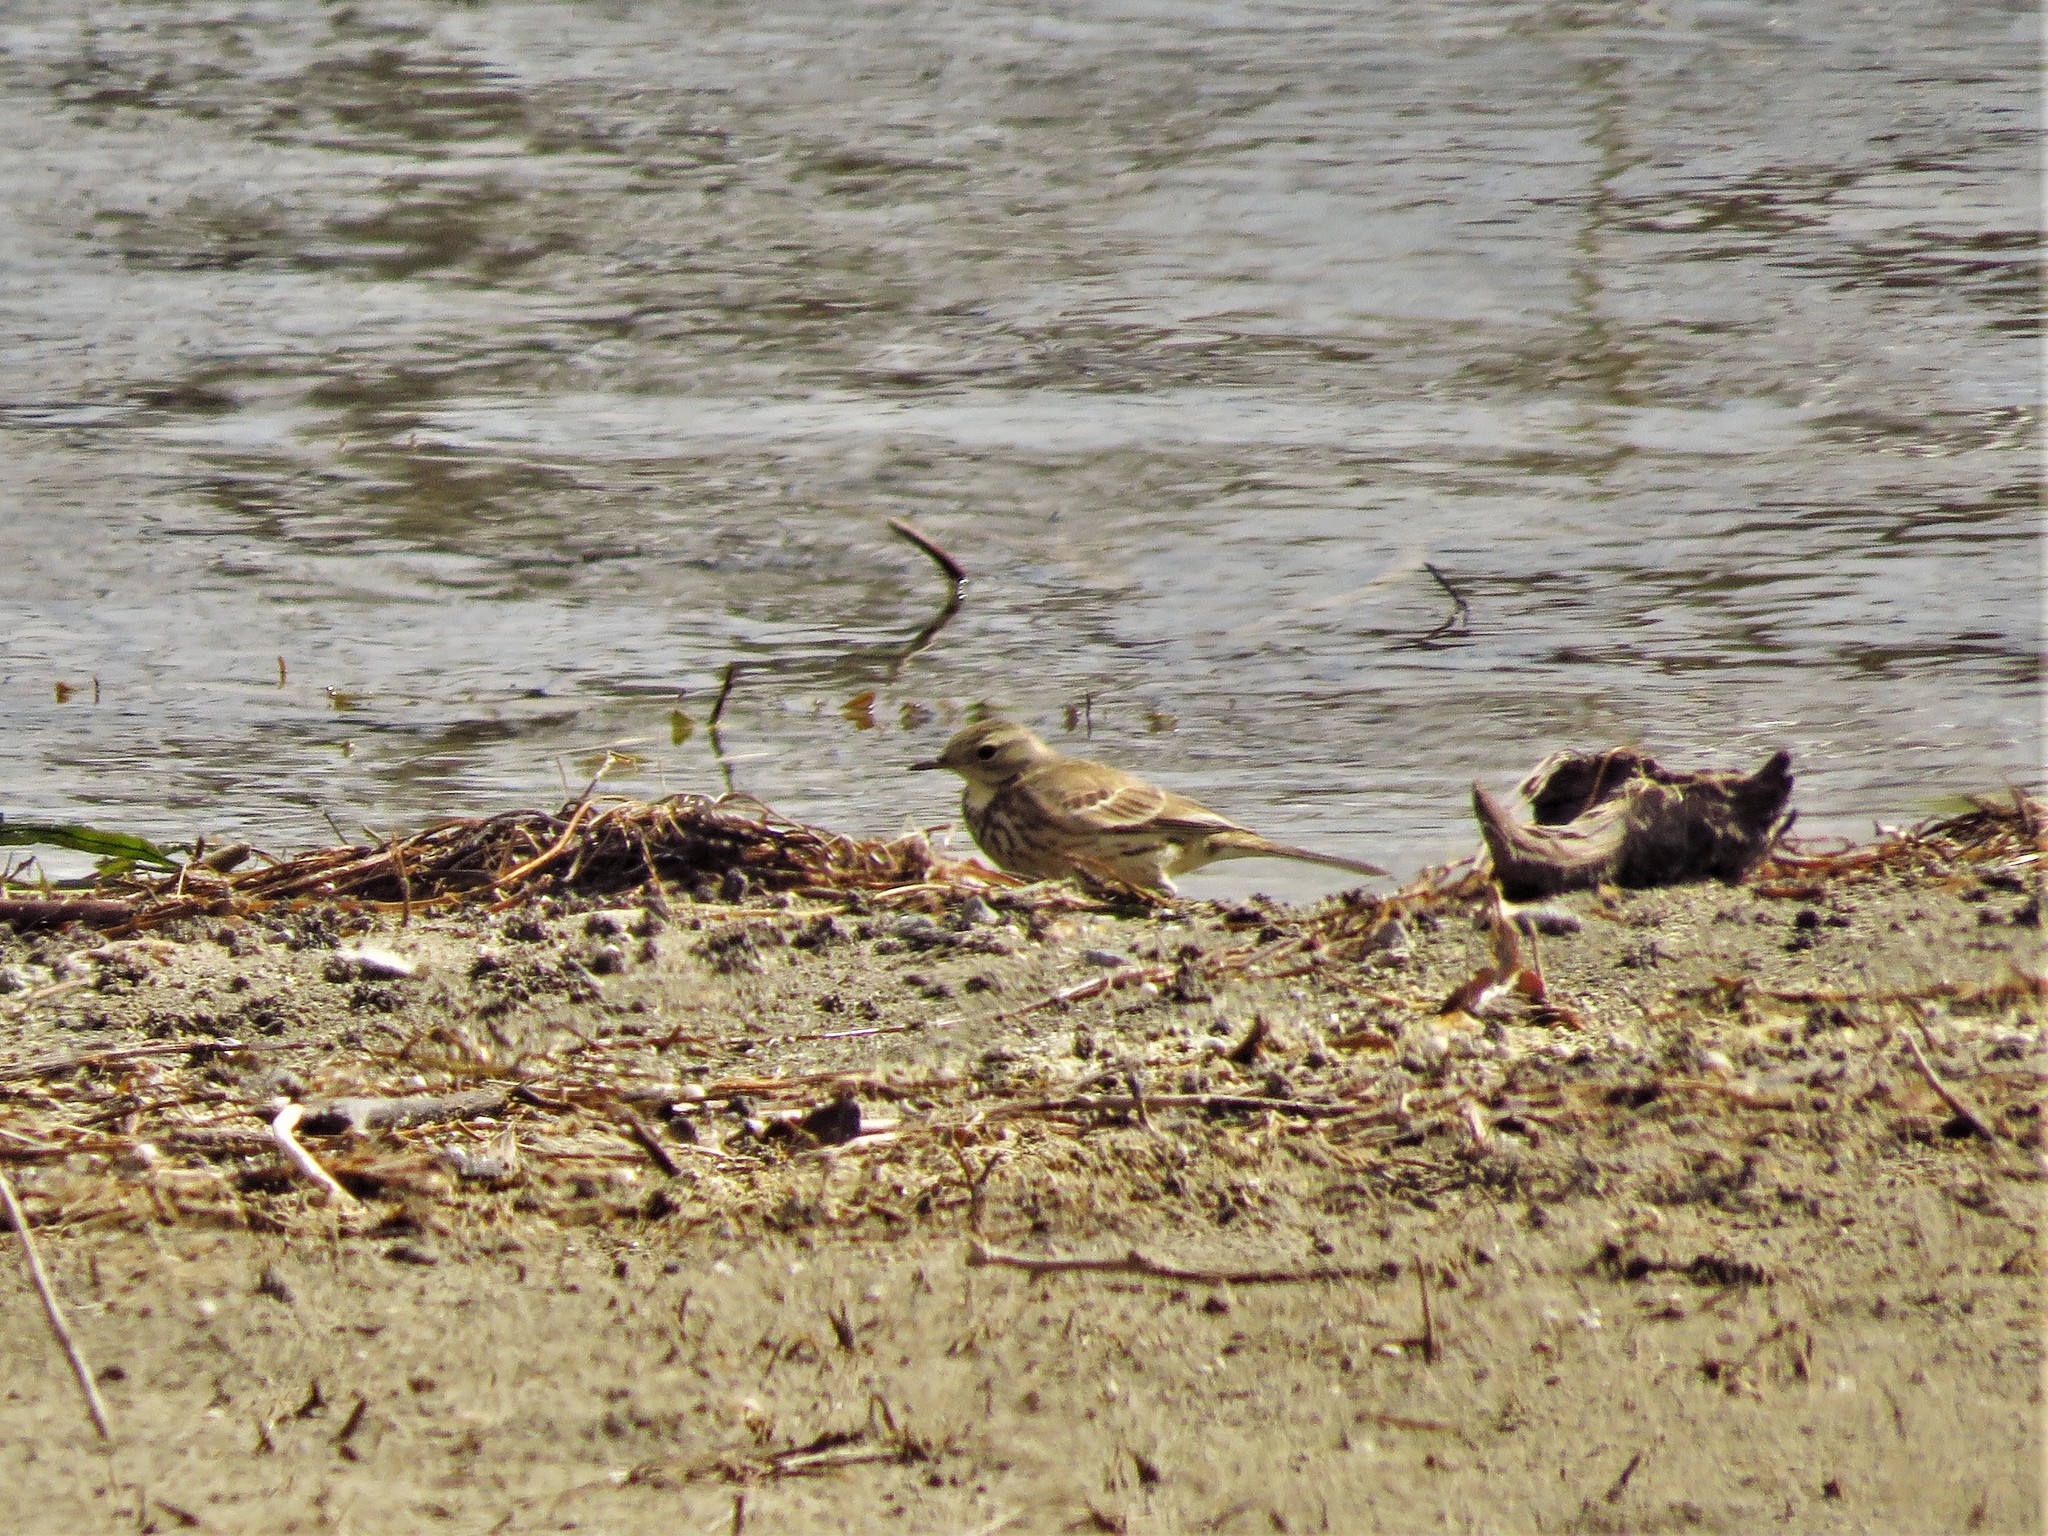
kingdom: Animalia
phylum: Chordata
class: Aves
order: Passeriformes
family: Motacillidae
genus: Anthus
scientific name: Anthus rubescens
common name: Buff-bellied pipit
